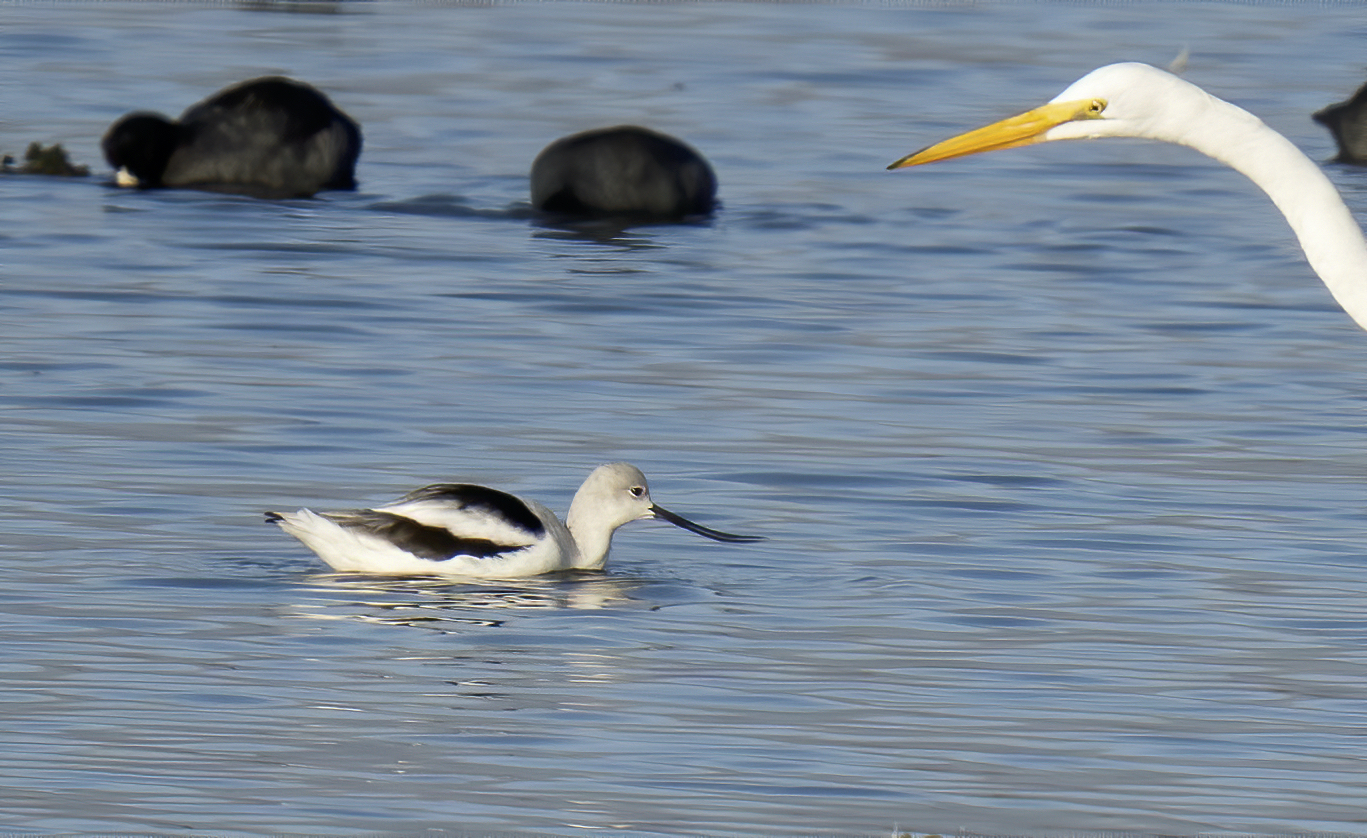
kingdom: Animalia
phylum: Chordata
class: Aves
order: Charadriiformes
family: Recurvirostridae
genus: Recurvirostra
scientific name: Recurvirostra americana
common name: American avocet
